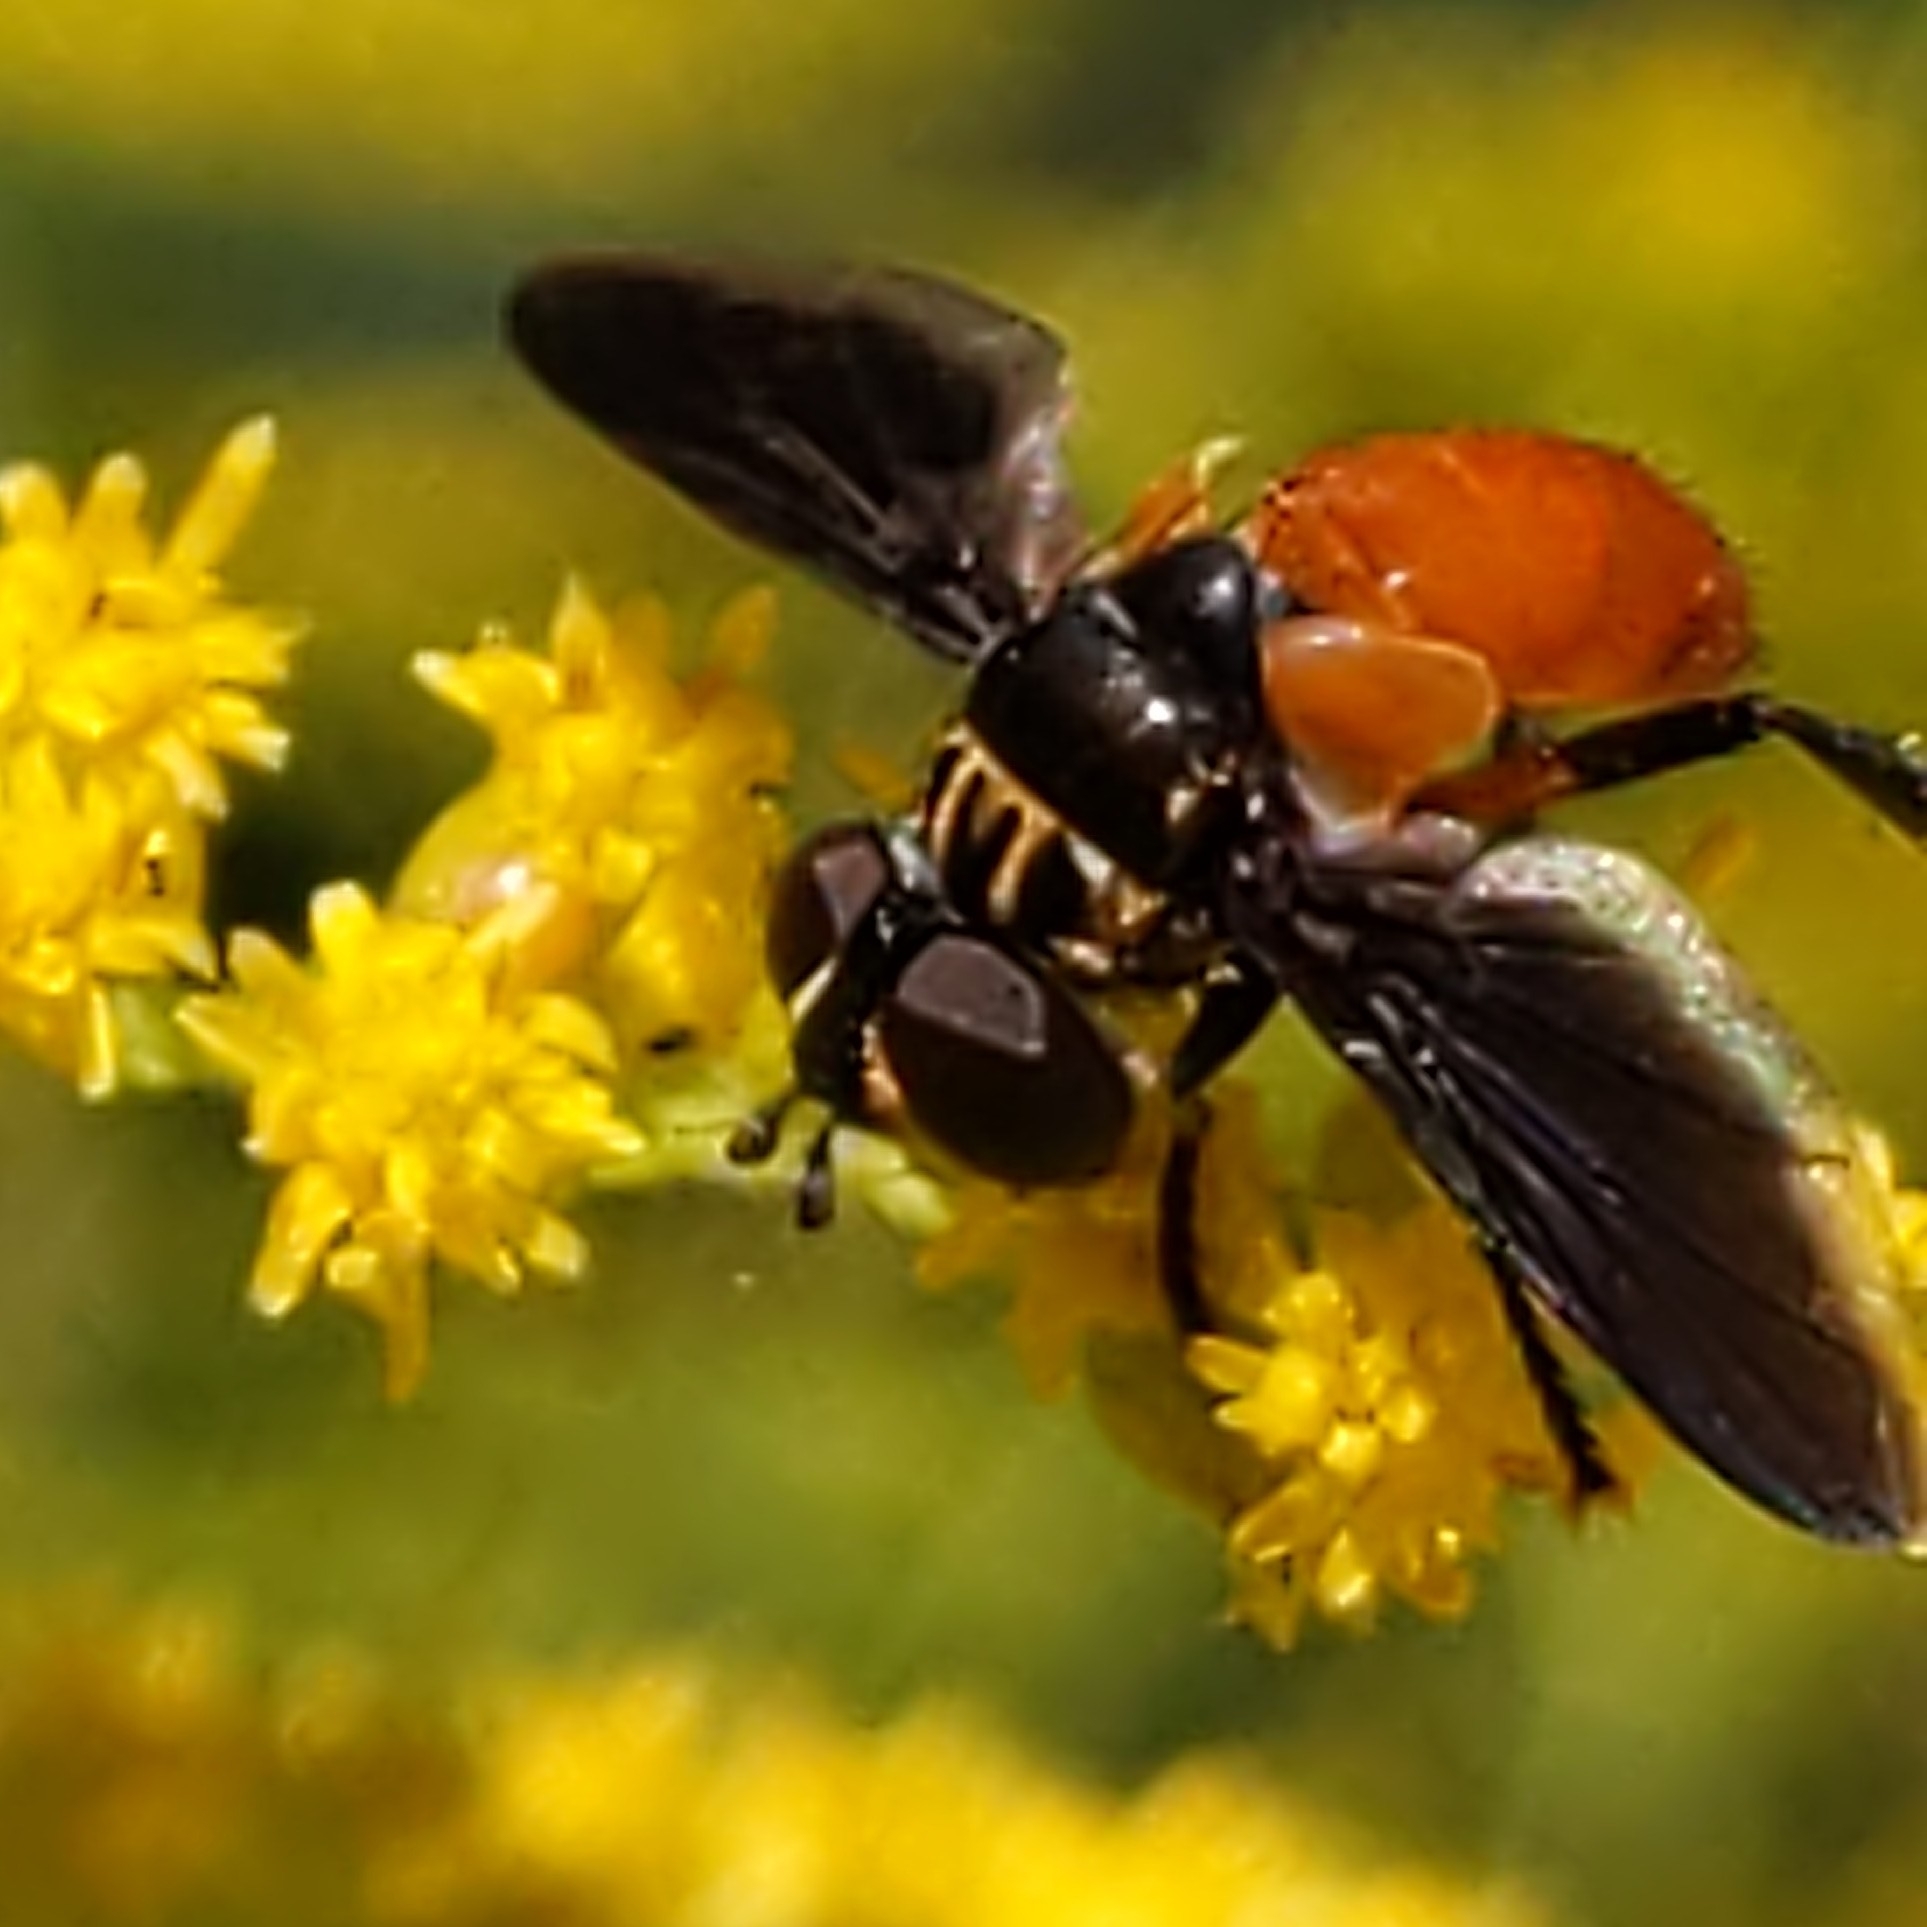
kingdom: Animalia
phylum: Arthropoda
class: Insecta
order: Diptera
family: Tachinidae
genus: Trichopoda
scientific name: Trichopoda pennipes
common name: Tachinid fly
